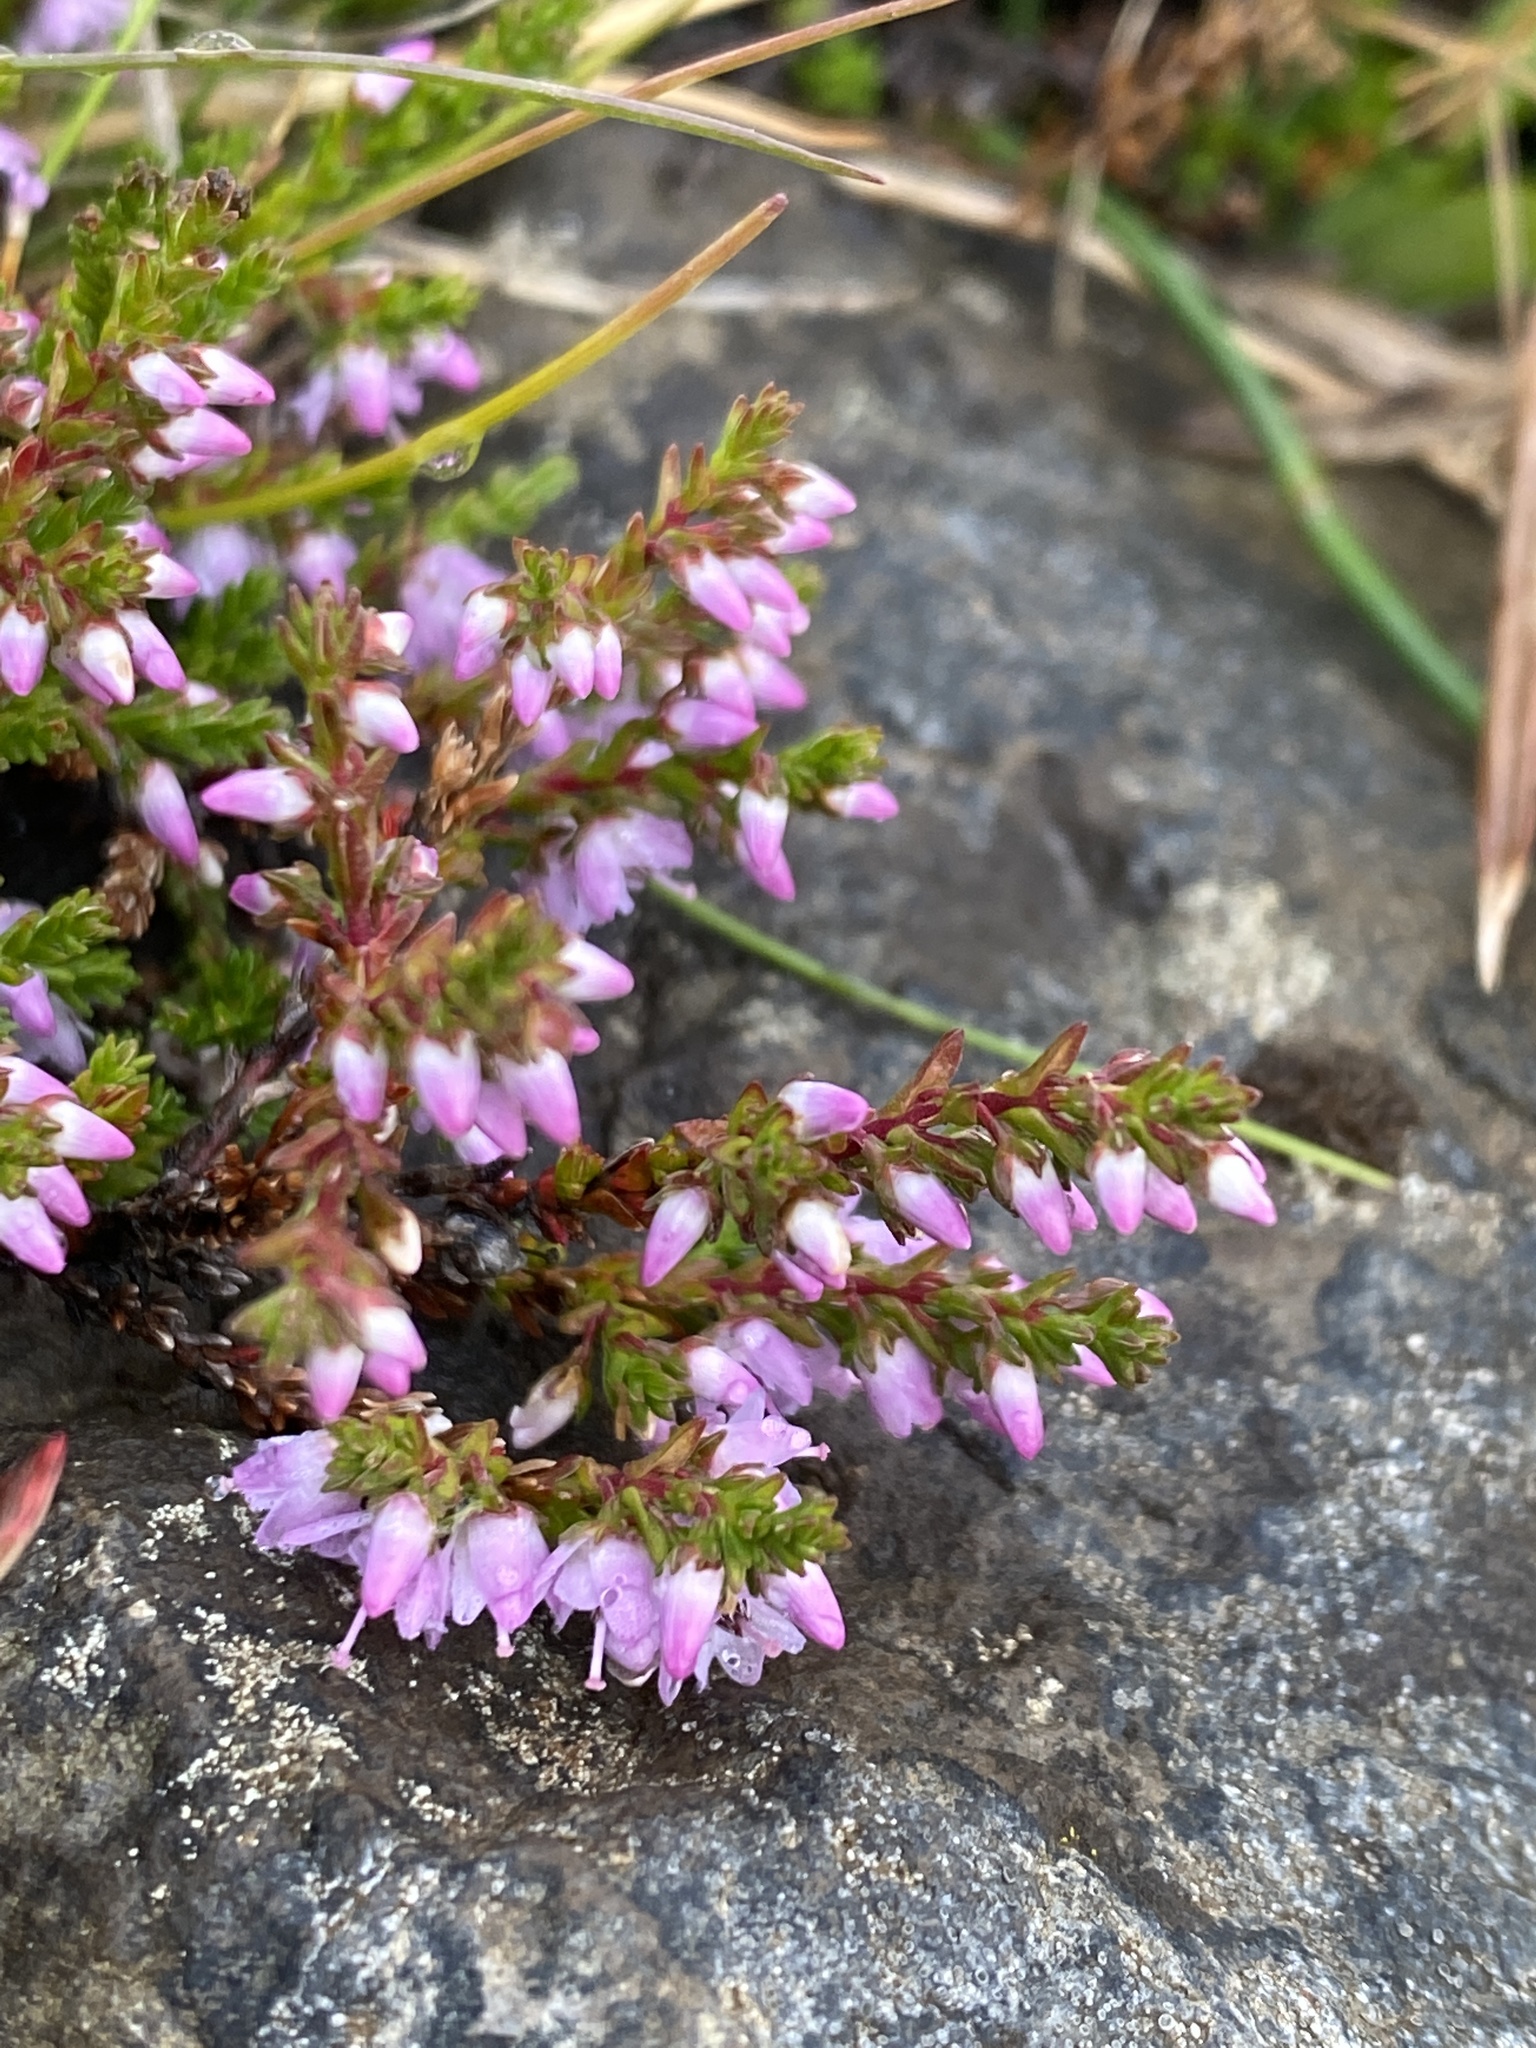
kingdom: Plantae
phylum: Tracheophyta
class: Magnoliopsida
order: Ericales
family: Ericaceae
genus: Calluna
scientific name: Calluna vulgaris
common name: Heather
